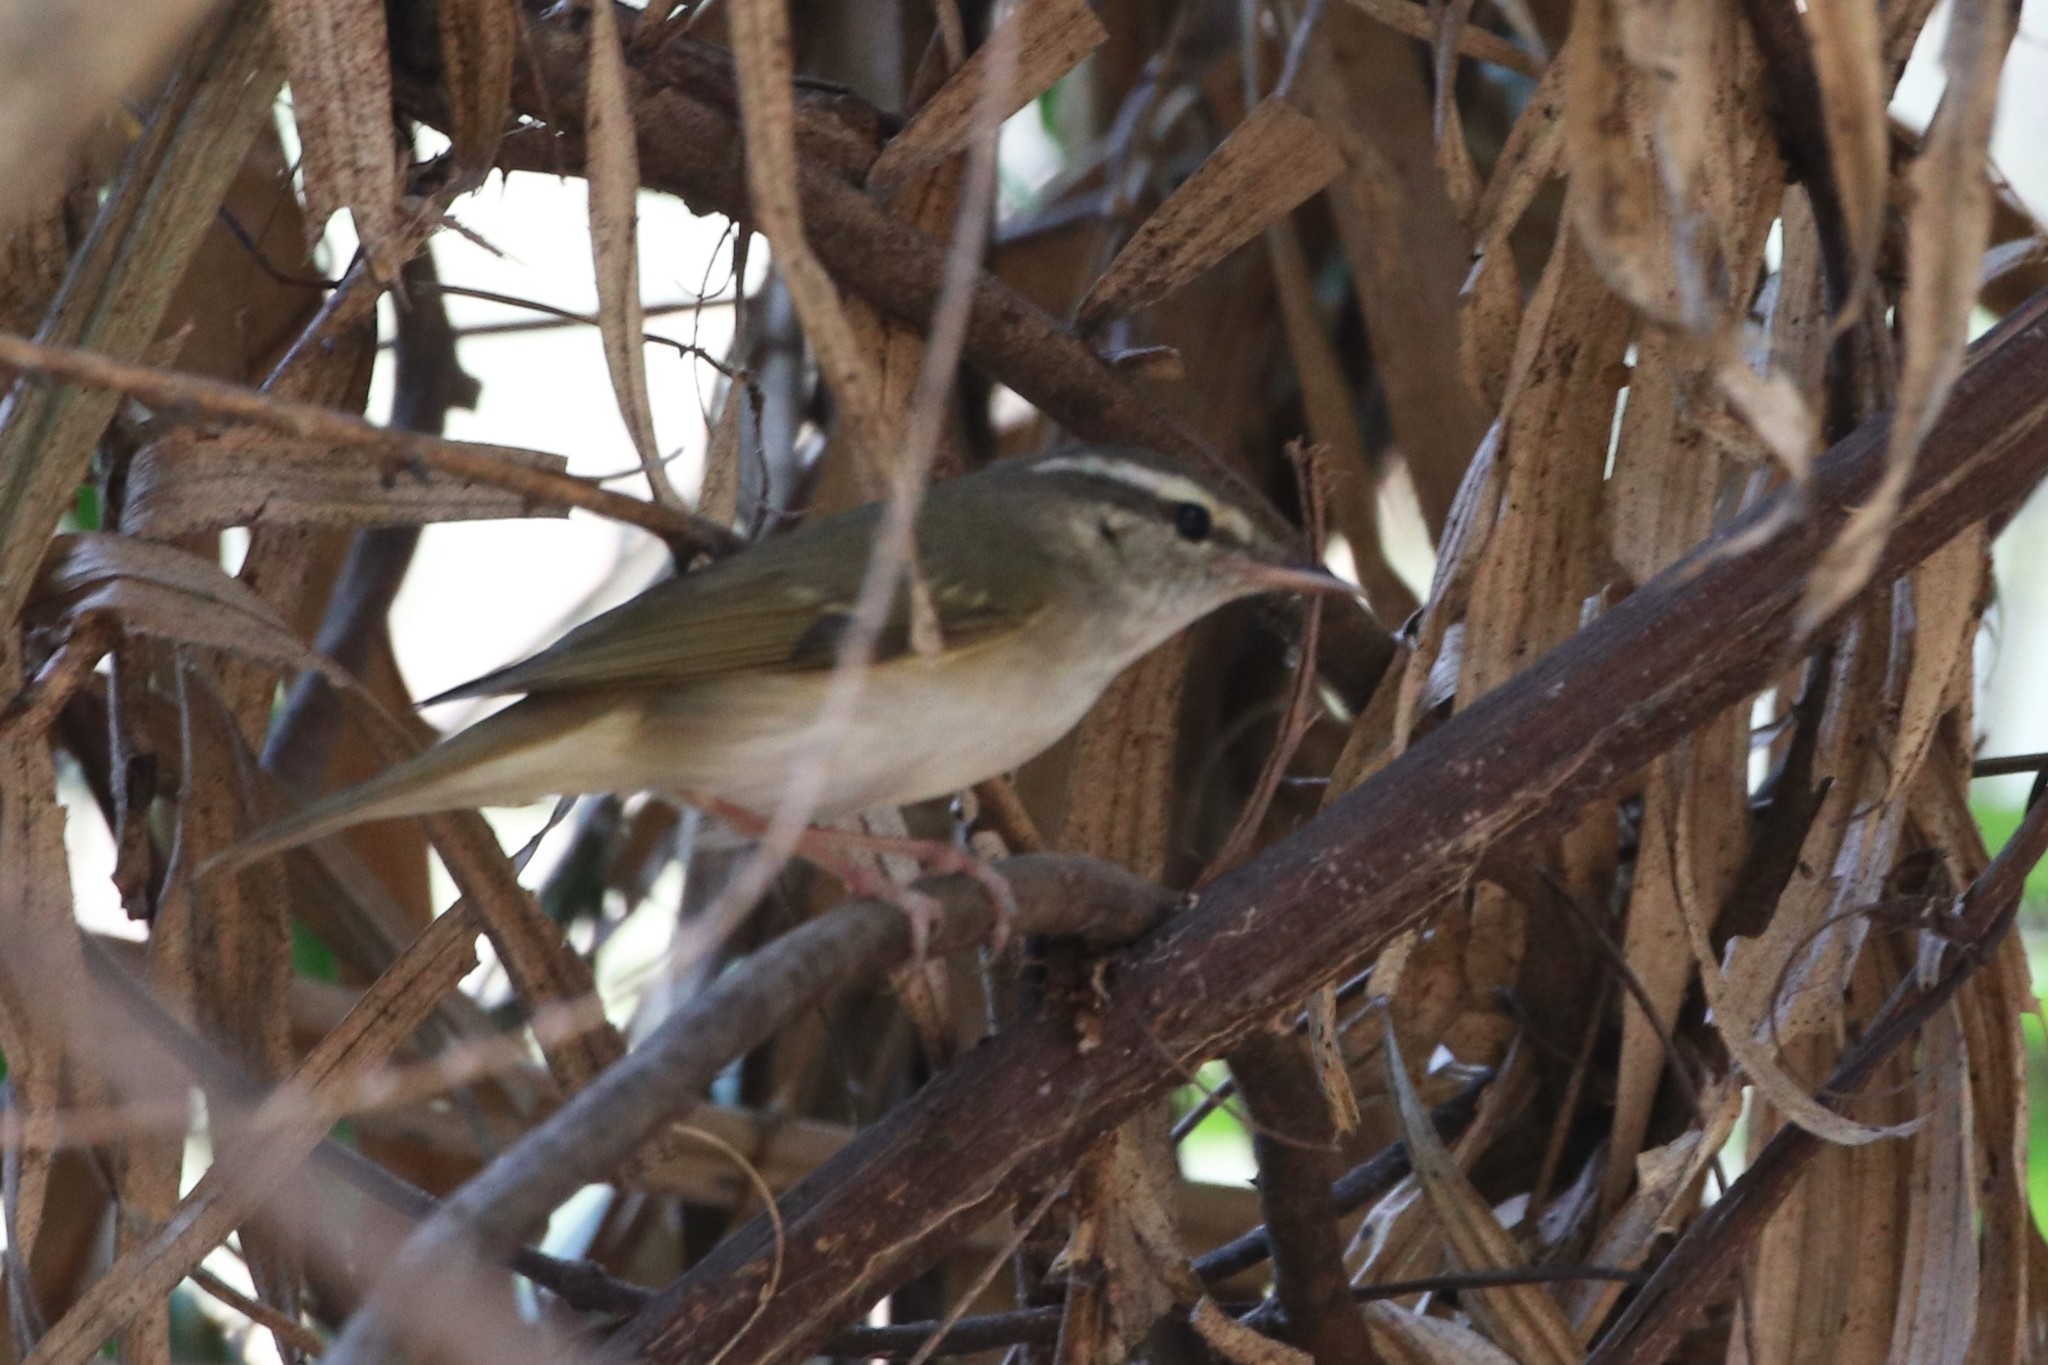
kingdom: Animalia
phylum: Chordata
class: Aves
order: Passeriformes
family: Phylloscopidae
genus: Phylloscopus
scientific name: Phylloscopus inornatus
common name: Yellow-browed warbler
